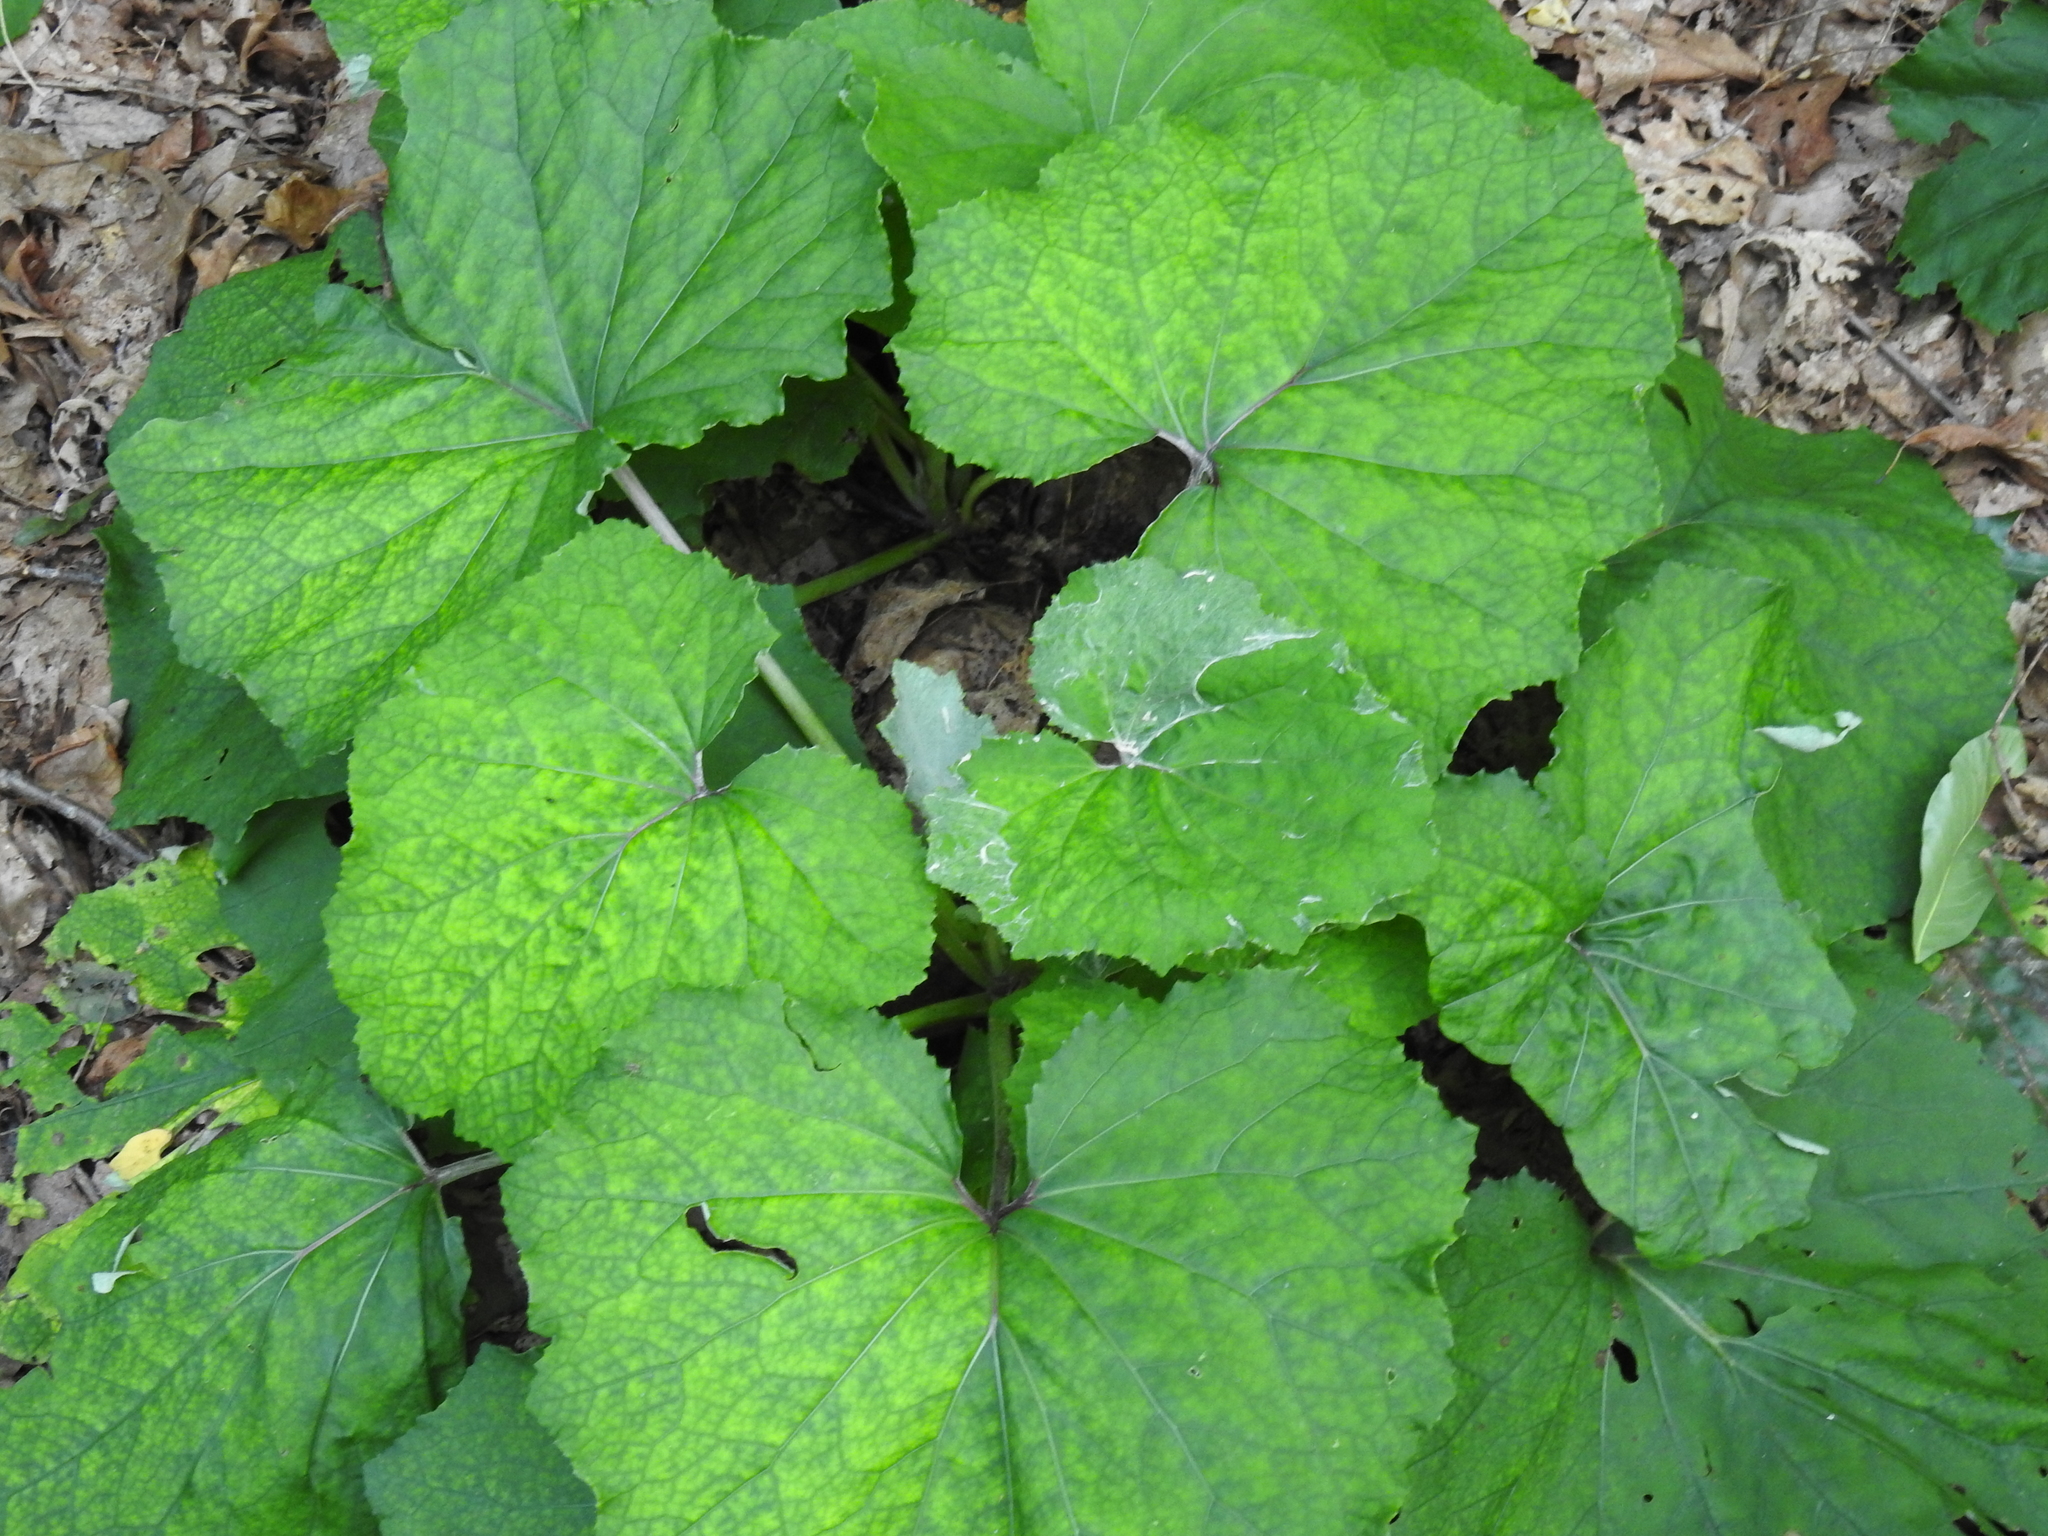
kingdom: Plantae
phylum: Tracheophyta
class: Magnoliopsida
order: Asterales
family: Asteraceae
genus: Tussilago
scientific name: Tussilago farfara
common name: Coltsfoot
